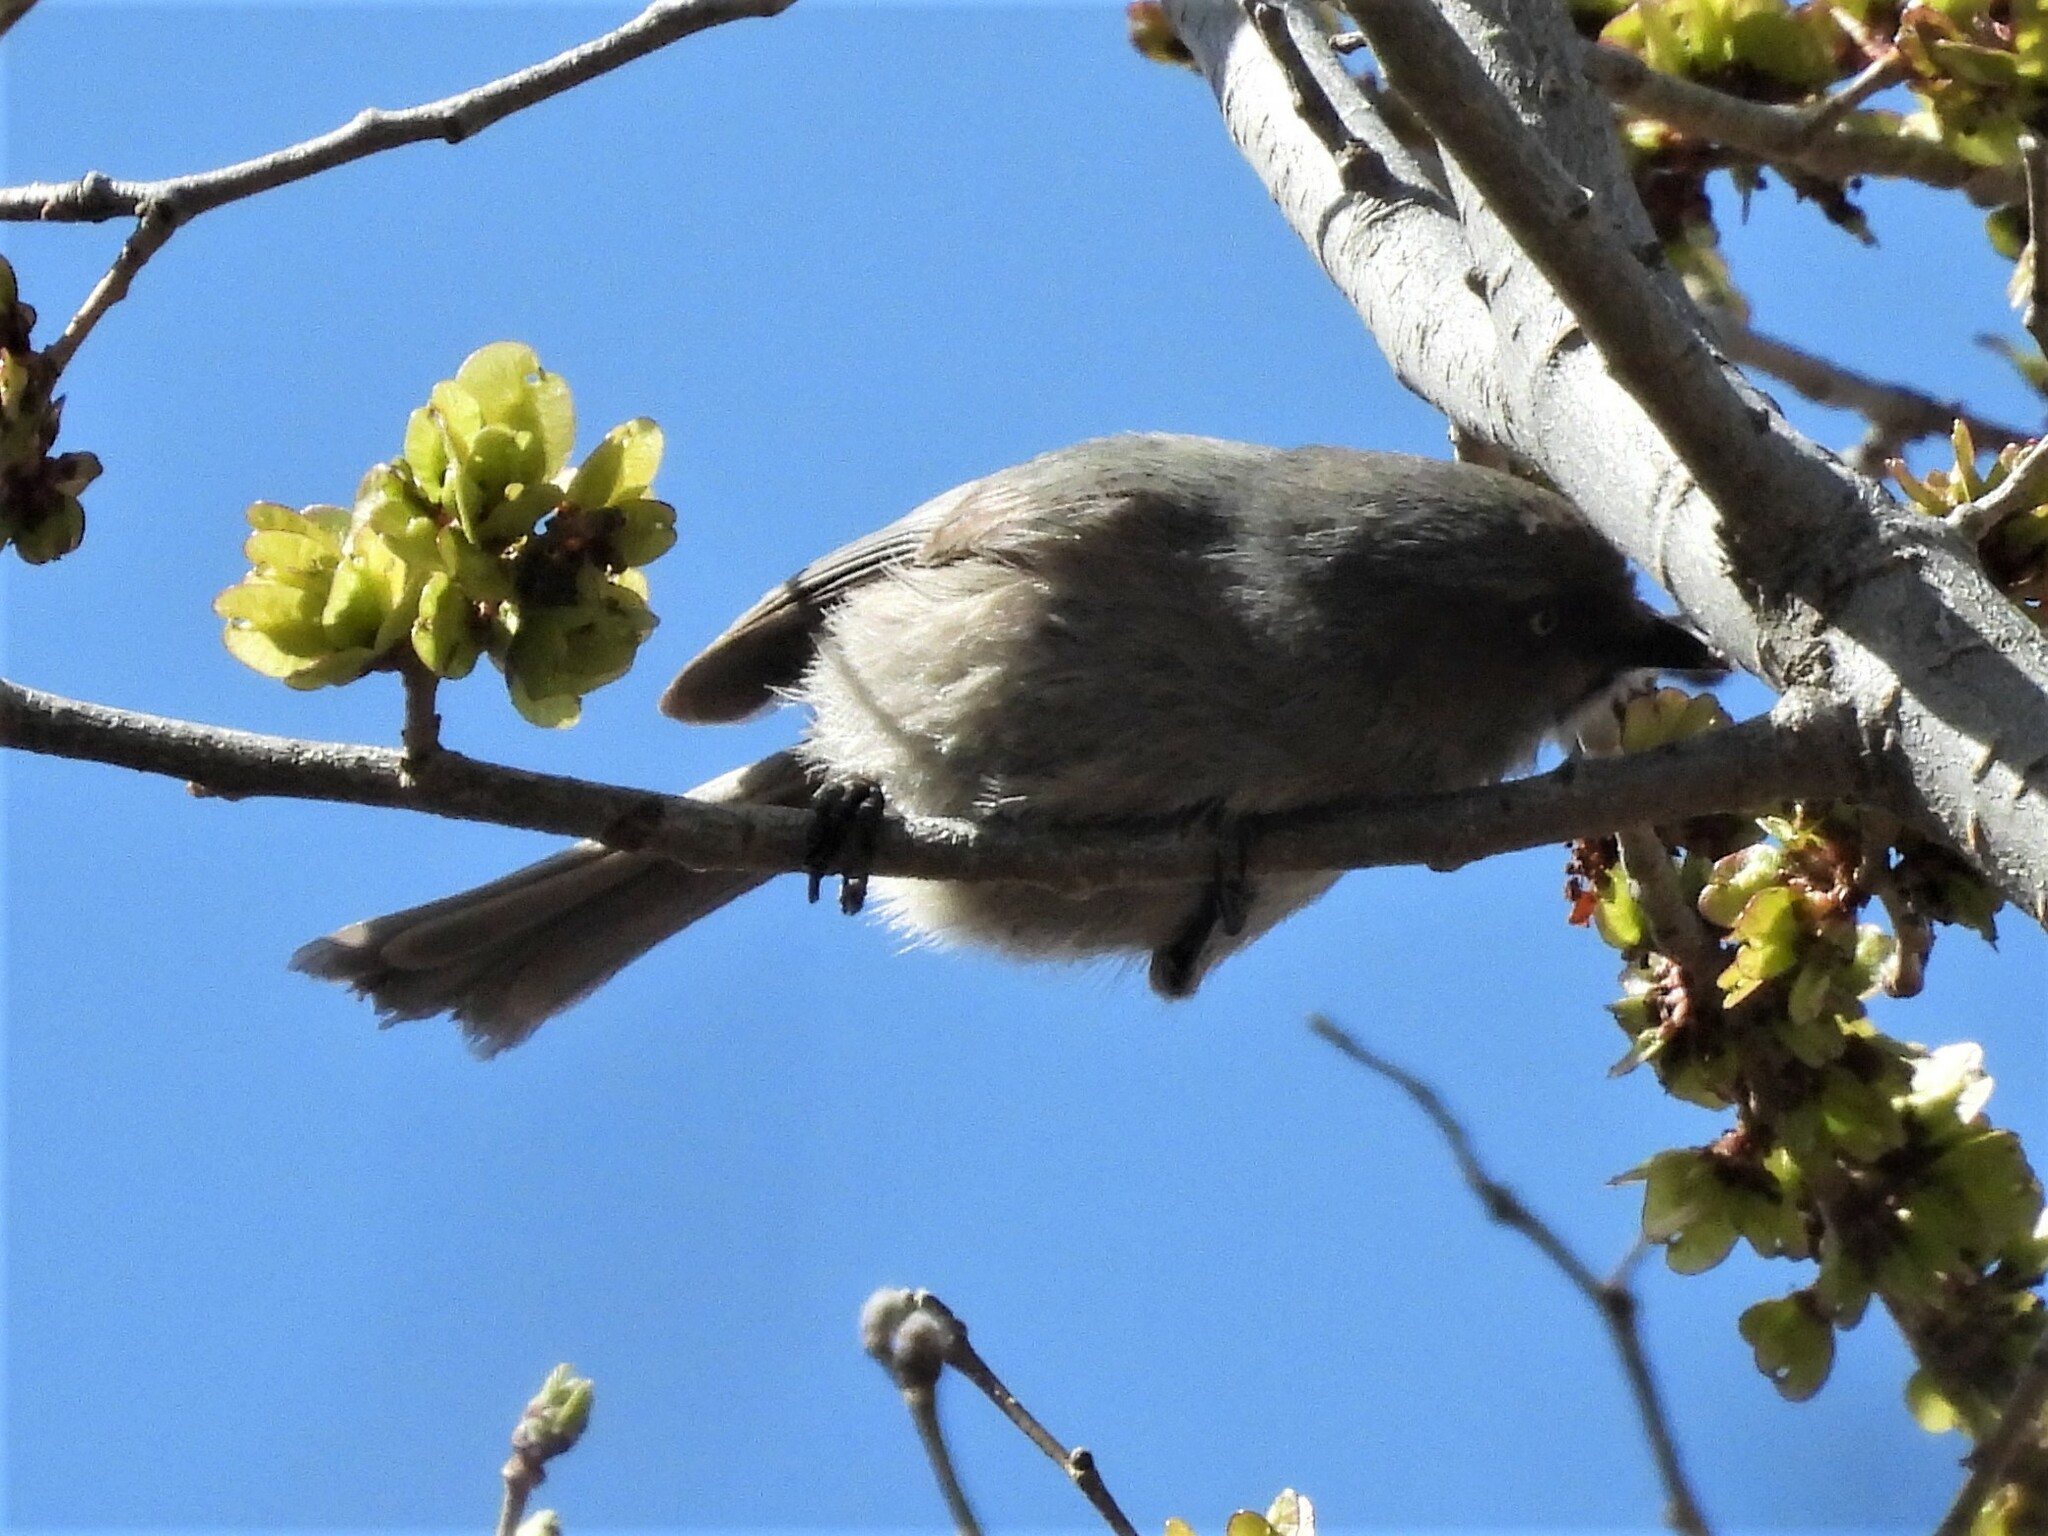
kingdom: Animalia
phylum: Chordata
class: Aves
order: Passeriformes
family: Aegithalidae
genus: Psaltriparus
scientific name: Psaltriparus minimus
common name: American bushtit
